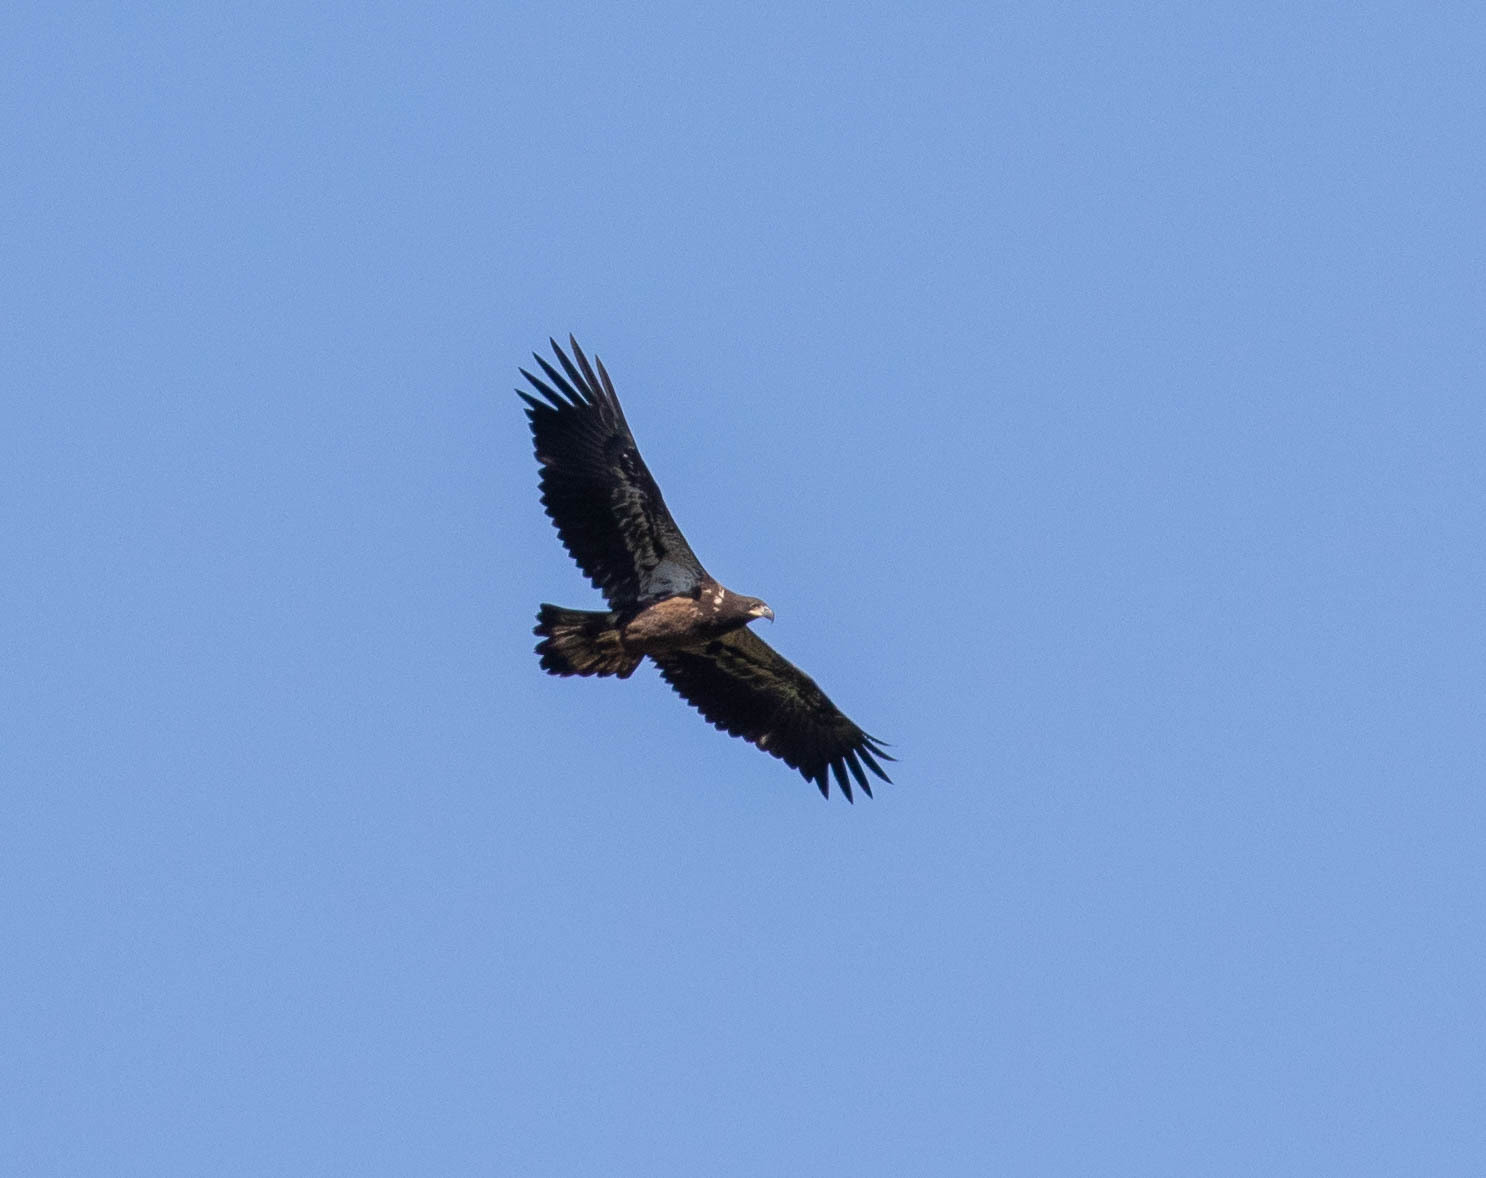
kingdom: Animalia
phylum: Chordata
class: Aves
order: Accipitriformes
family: Accipitridae
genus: Haliaeetus
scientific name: Haliaeetus leucocephalus
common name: Bald eagle
